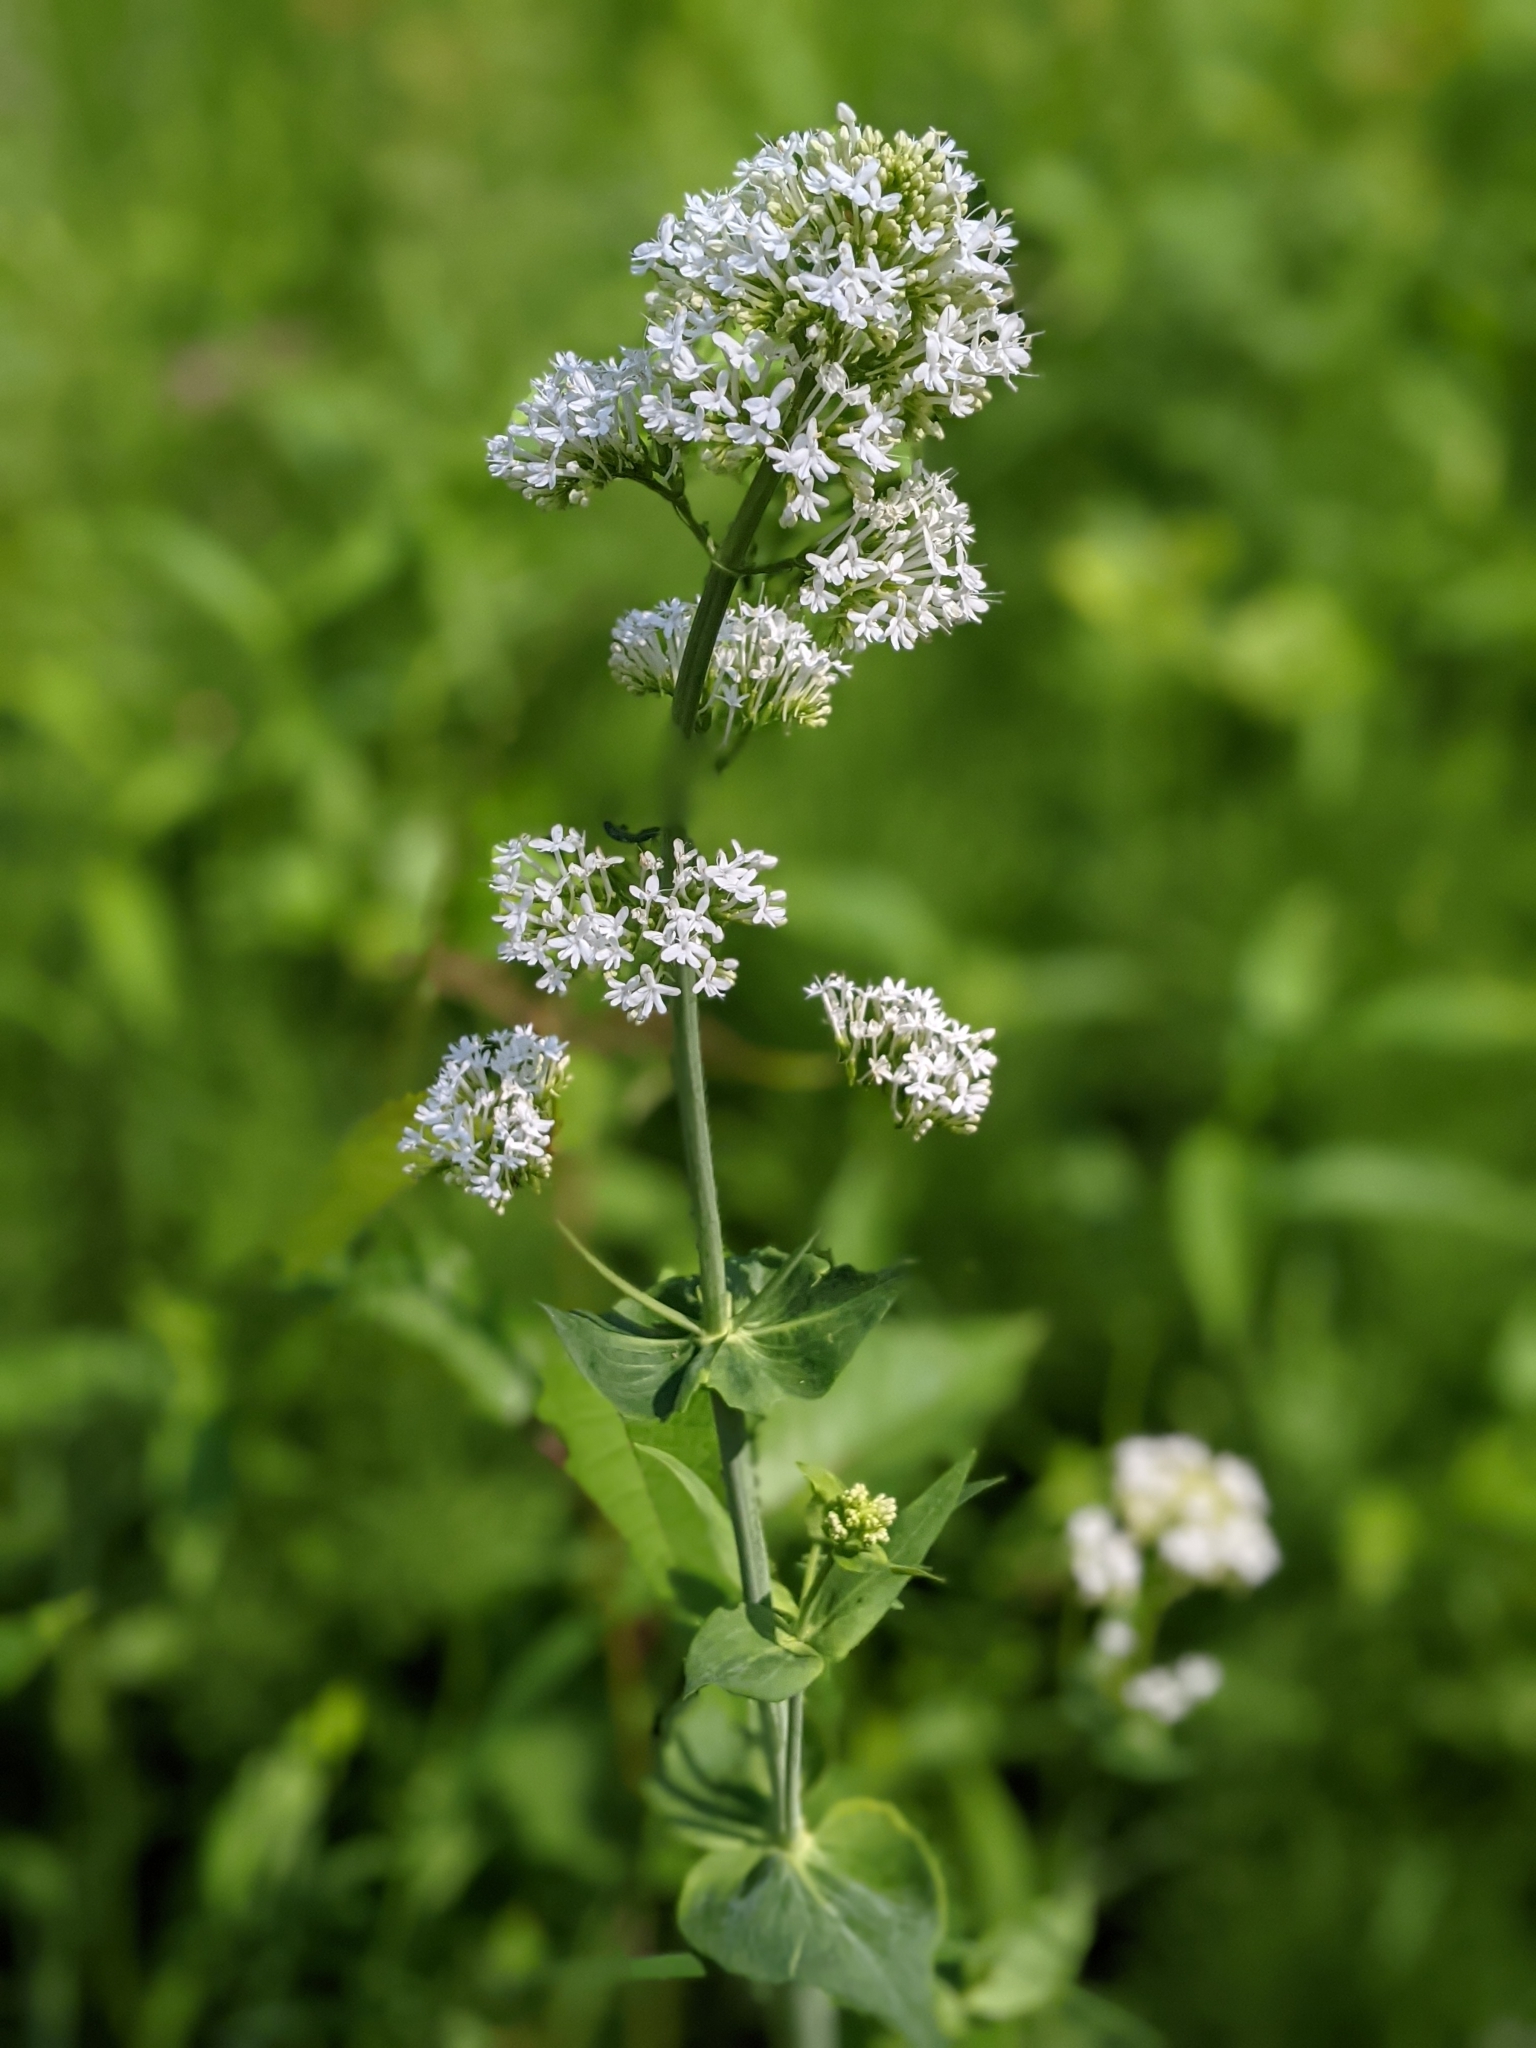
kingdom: Plantae
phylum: Tracheophyta
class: Magnoliopsida
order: Dipsacales
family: Caprifoliaceae
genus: Centranthus
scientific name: Centranthus ruber
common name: Red valerian
